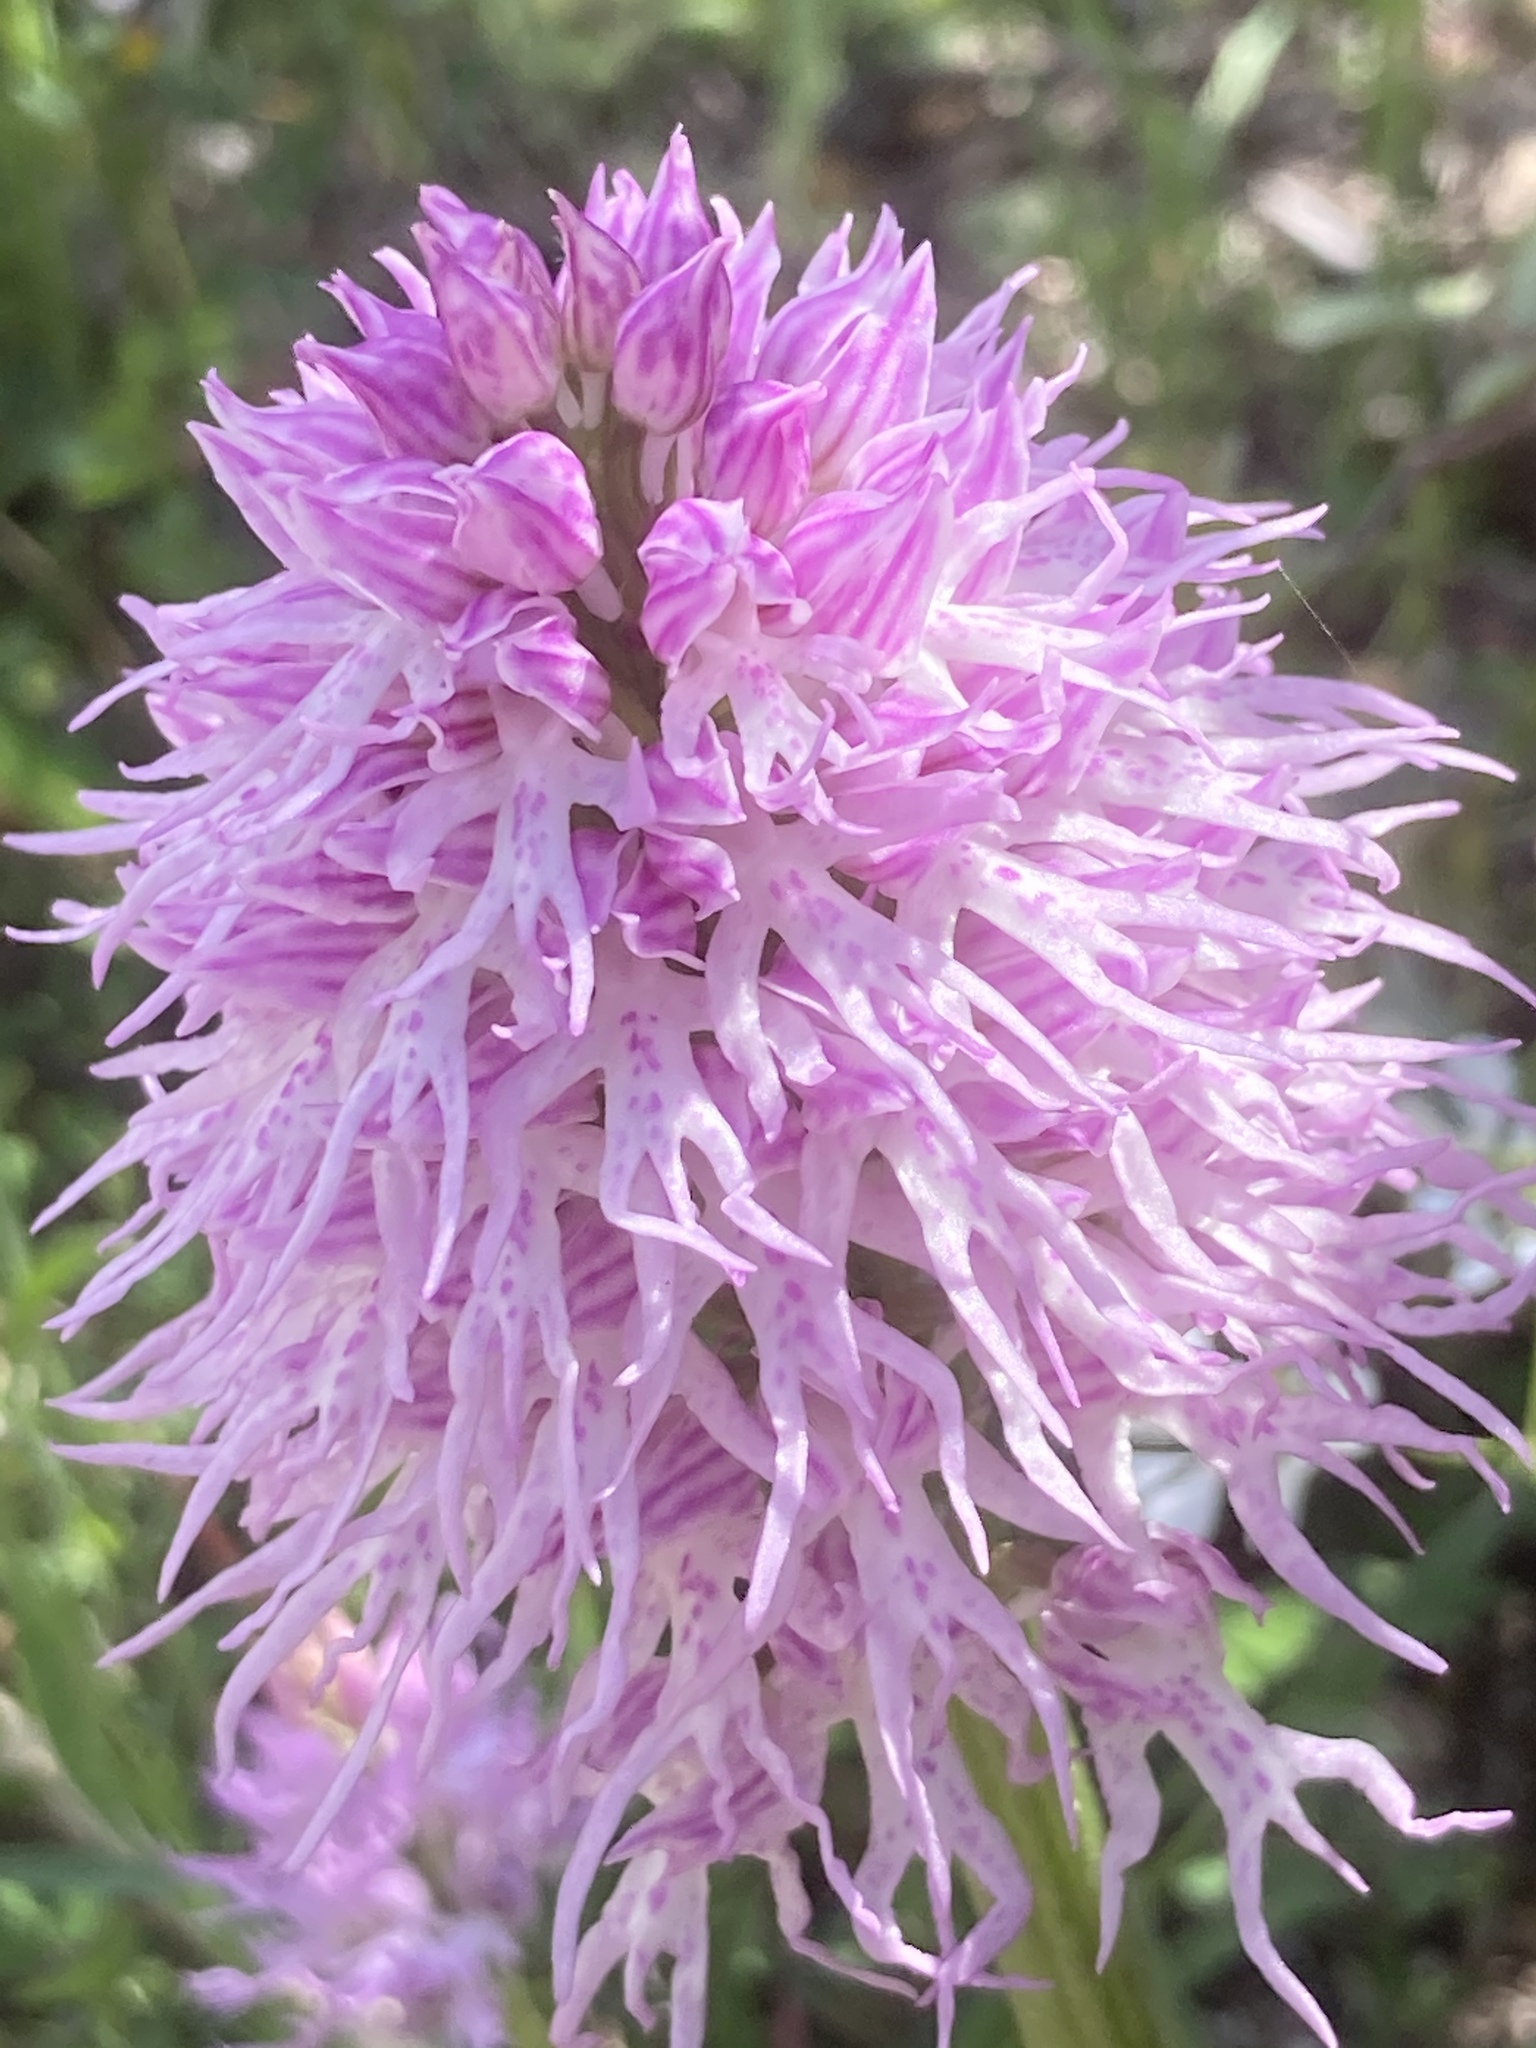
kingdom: Plantae
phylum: Tracheophyta
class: Liliopsida
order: Asparagales
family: Orchidaceae
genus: Orchis
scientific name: Orchis italica
